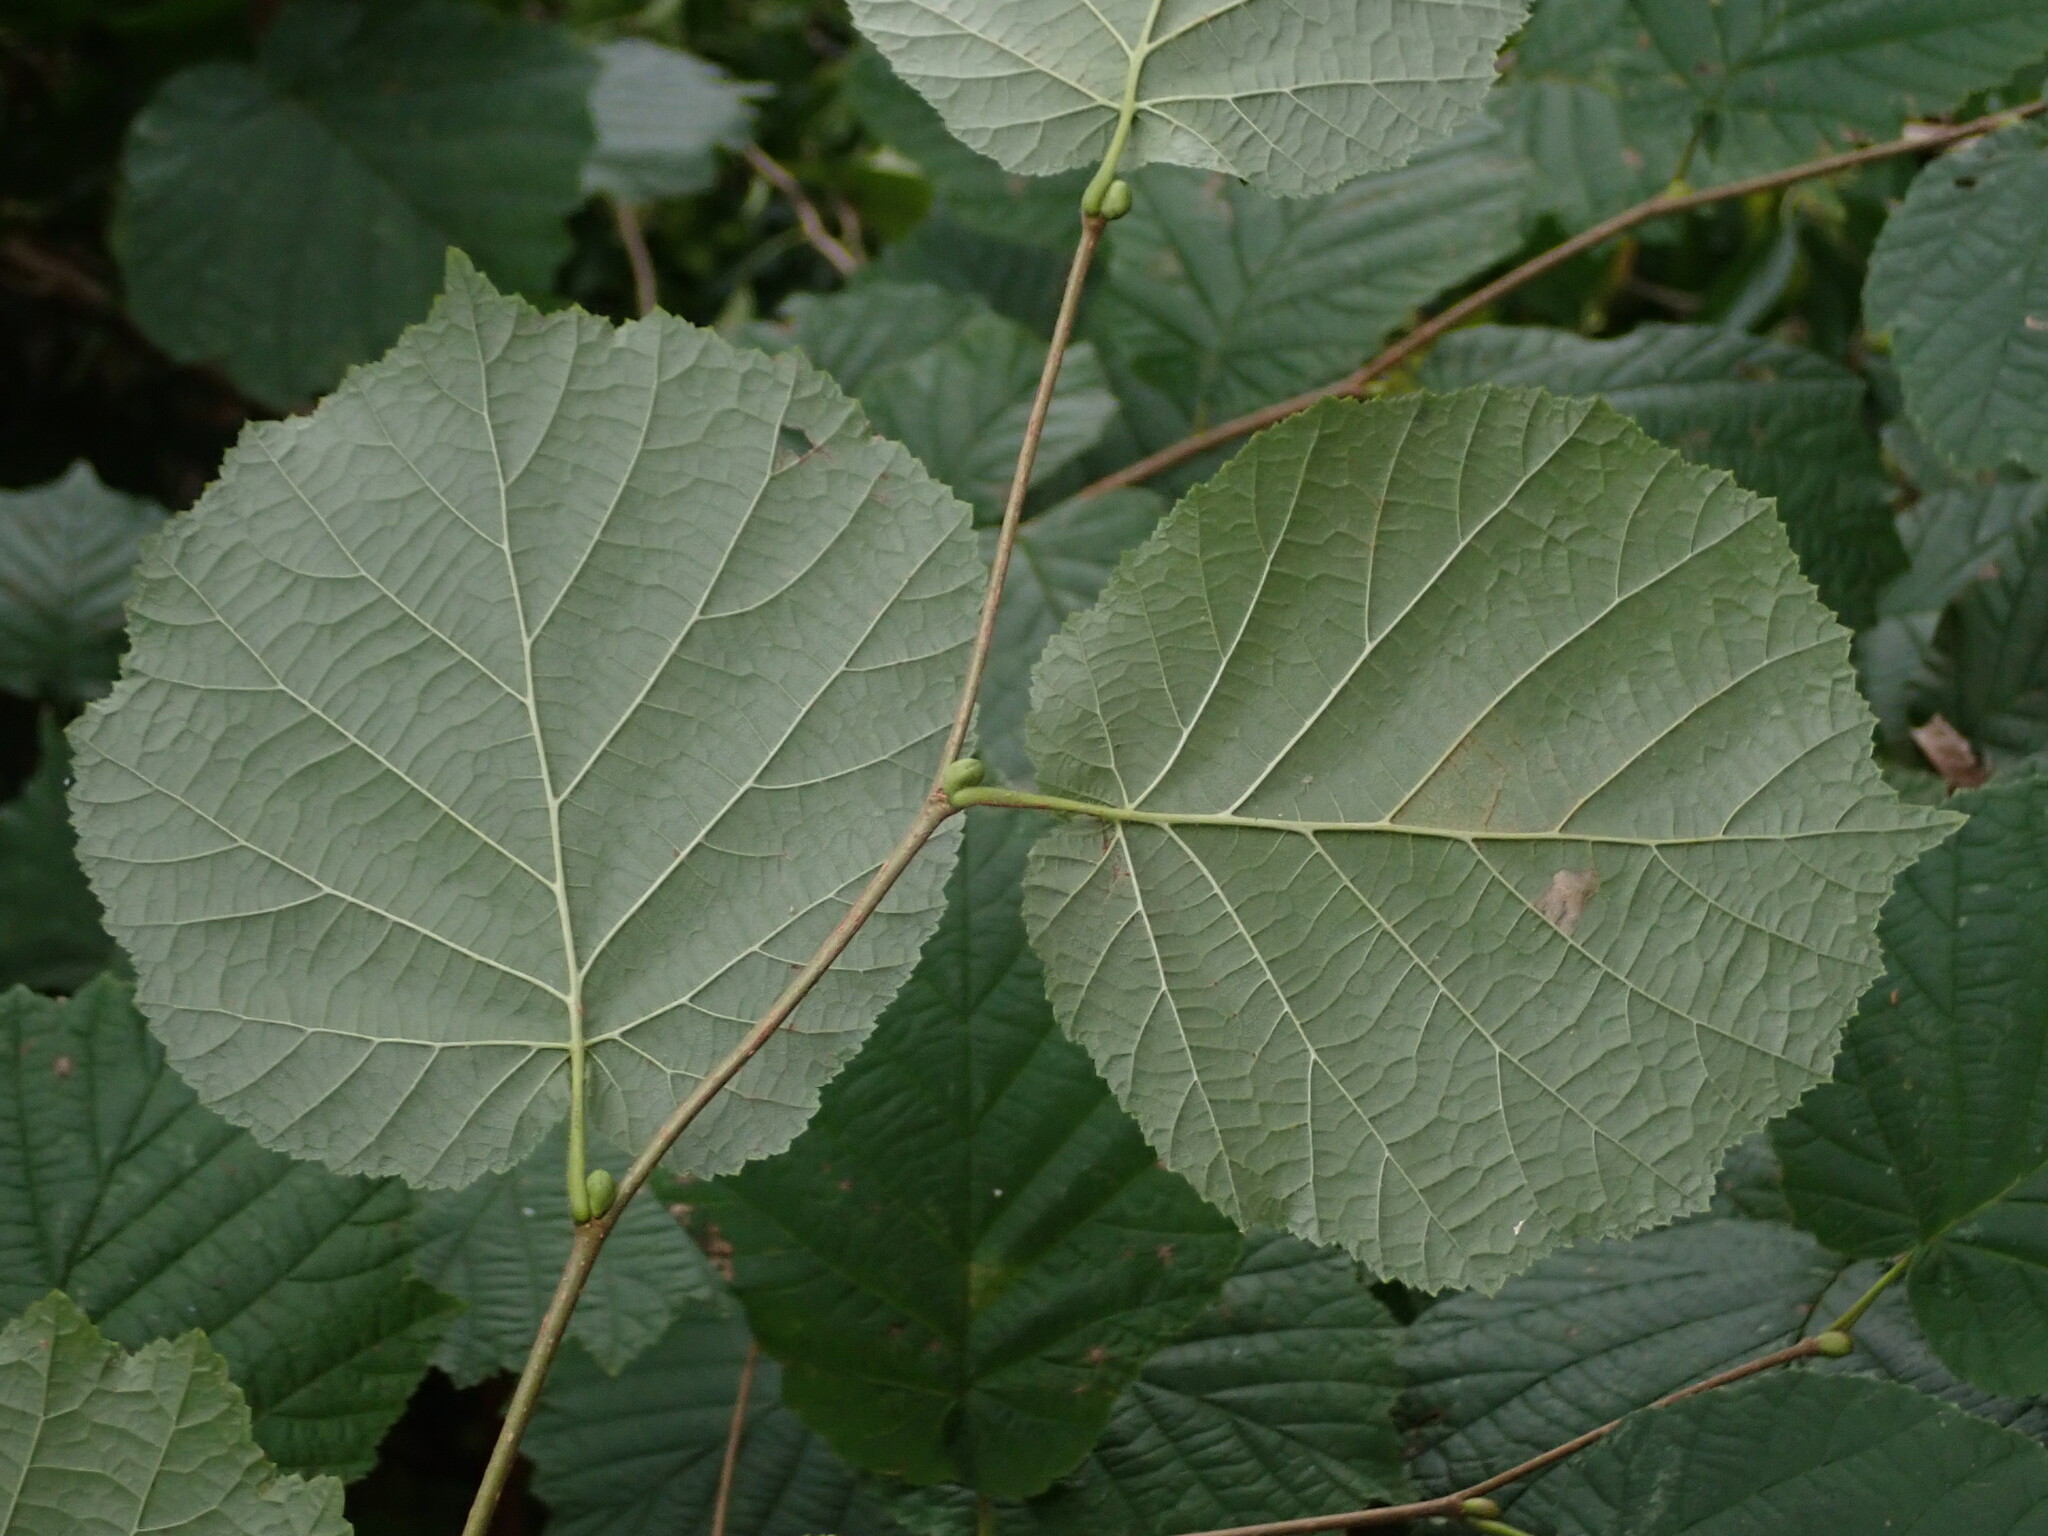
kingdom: Plantae
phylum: Tracheophyta
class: Magnoliopsida
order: Fagales
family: Betulaceae
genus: Corylus
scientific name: Corylus avellana
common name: European hazel
